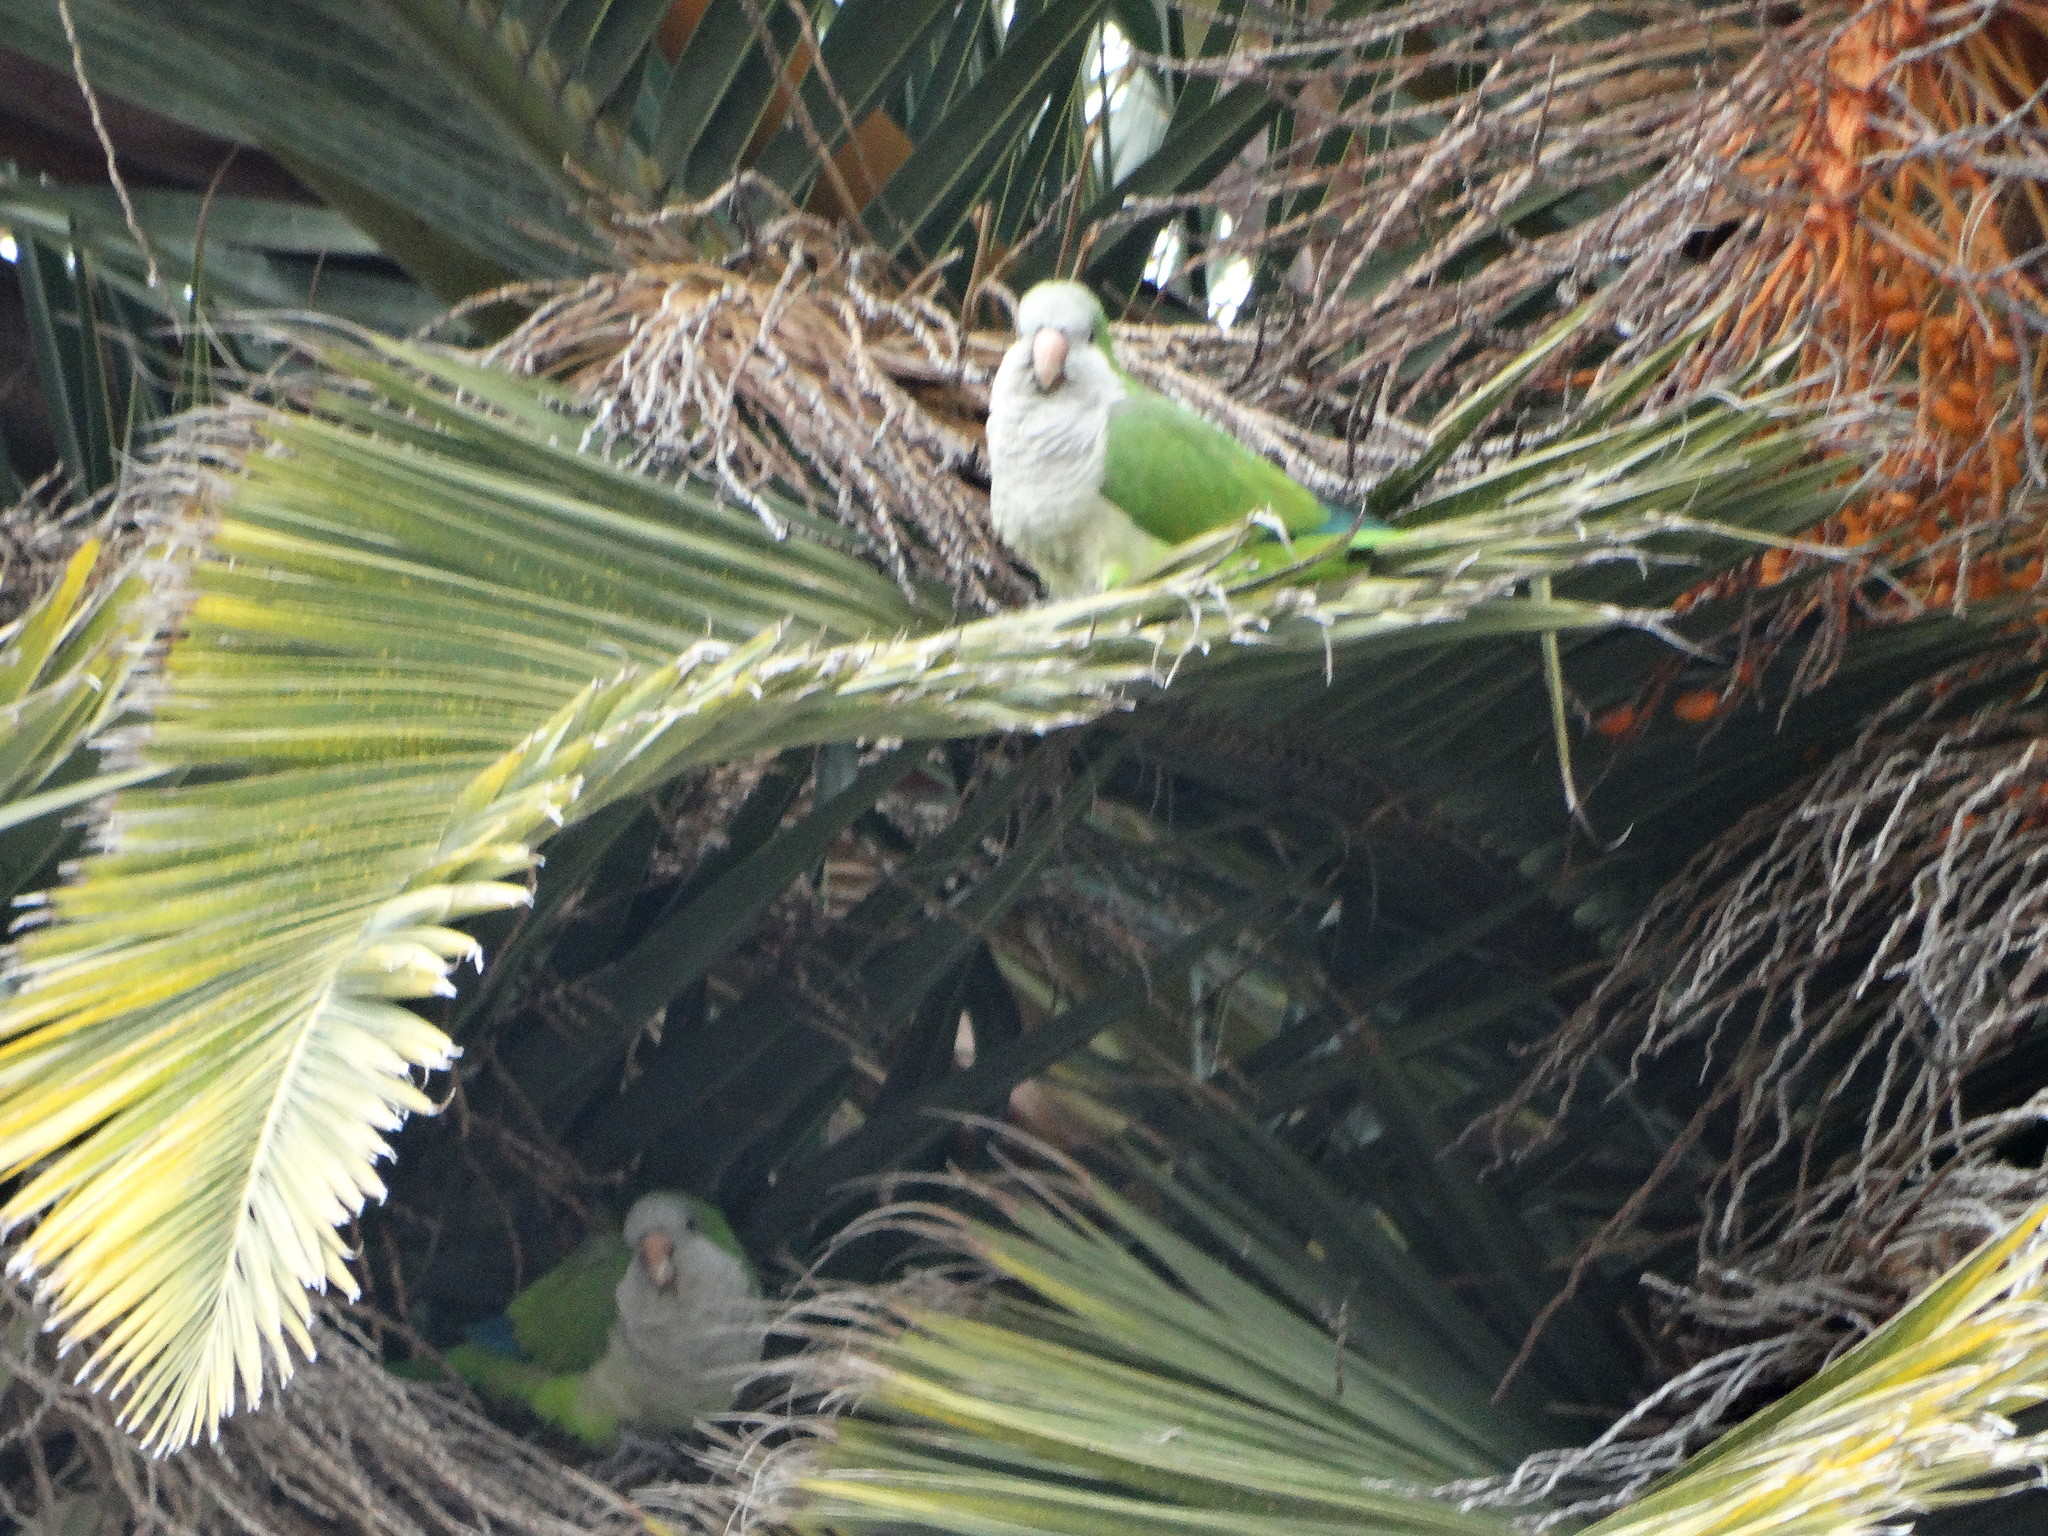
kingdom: Animalia
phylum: Chordata
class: Aves
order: Psittaciformes
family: Psittacidae
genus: Myiopsitta
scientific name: Myiopsitta monachus
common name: Monk parakeet
